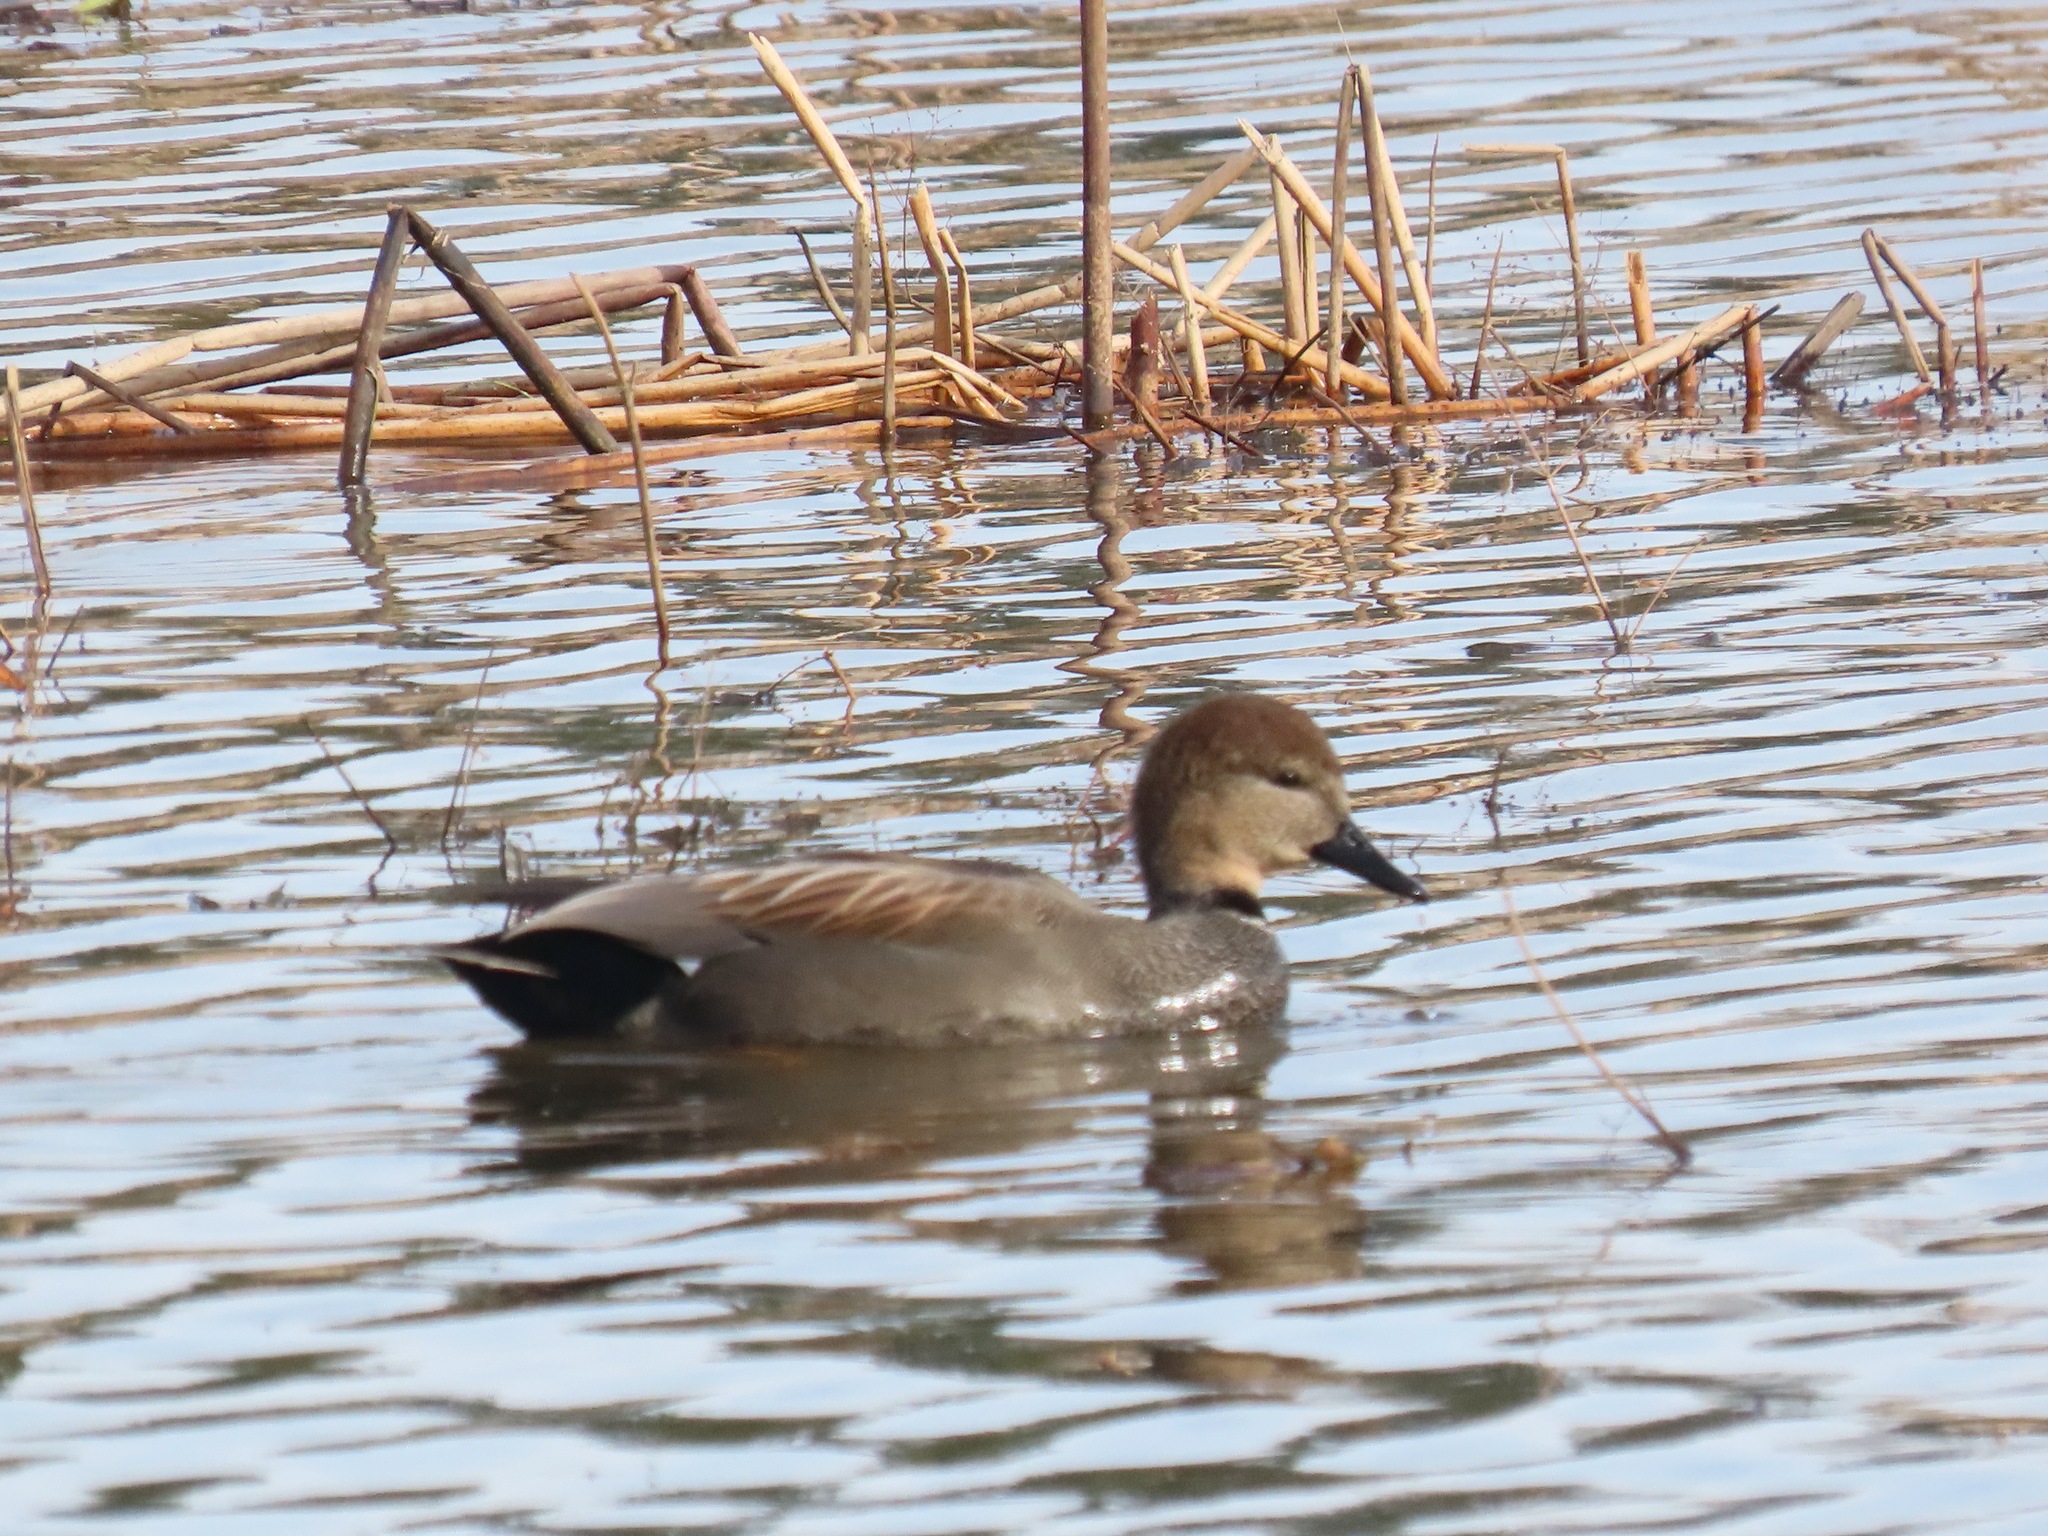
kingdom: Animalia
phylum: Chordata
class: Aves
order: Anseriformes
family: Anatidae
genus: Mareca
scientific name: Mareca strepera
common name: Gadwall
